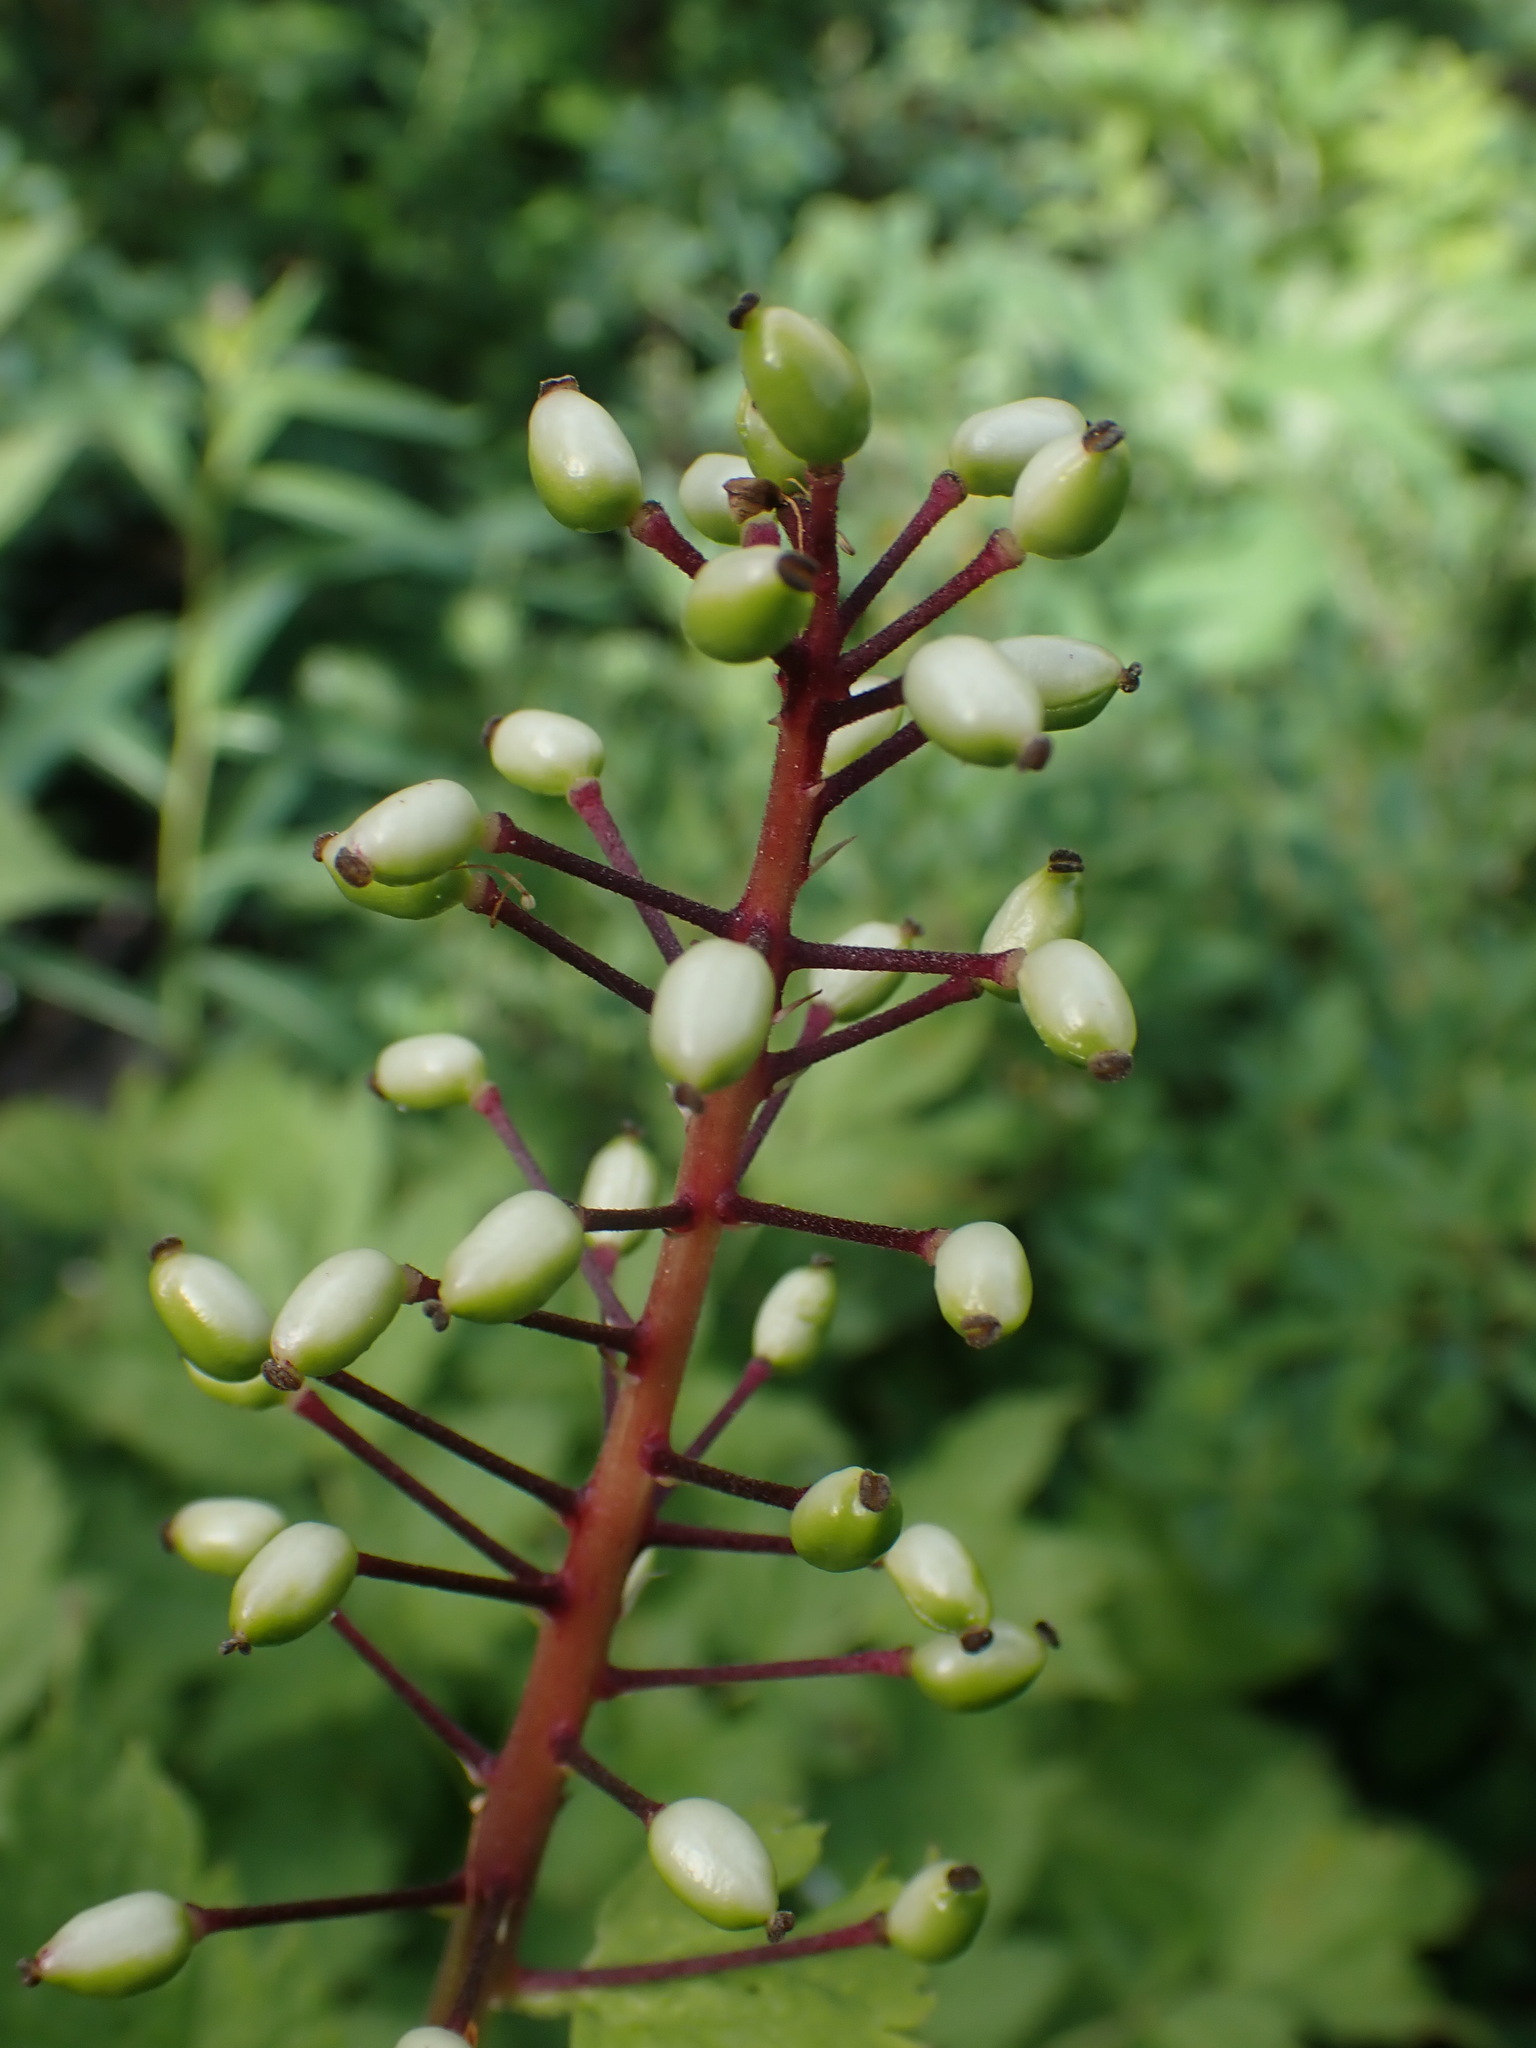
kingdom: Plantae
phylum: Tracheophyta
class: Magnoliopsida
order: Ranunculales
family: Ranunculaceae
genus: Actaea
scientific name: Actaea rubra
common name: Red baneberry
